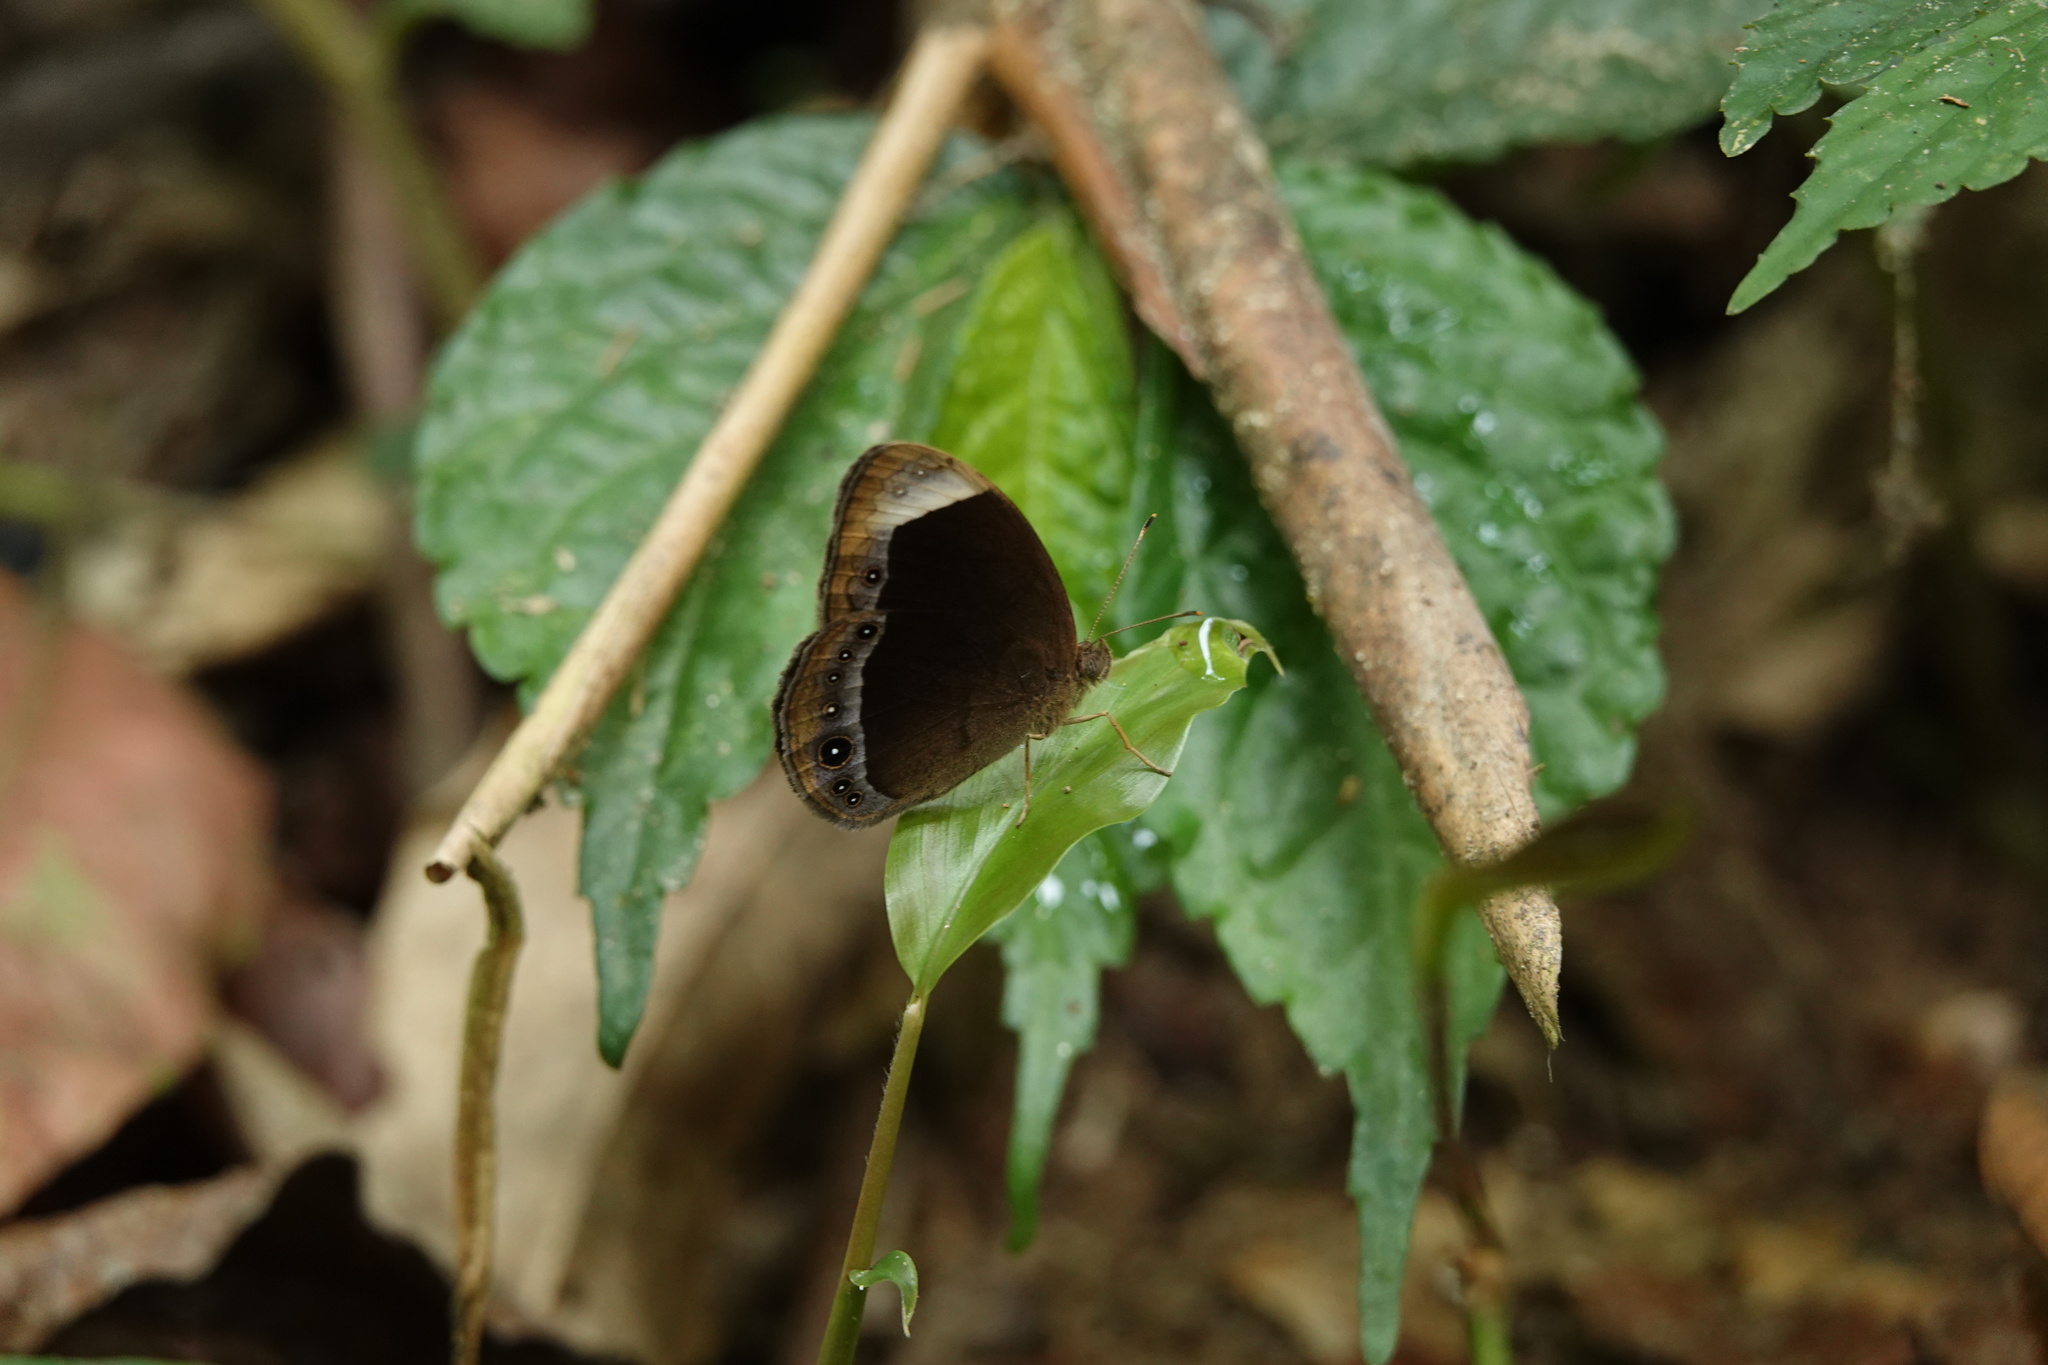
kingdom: Animalia
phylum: Arthropoda
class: Insecta
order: Lepidoptera
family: Nymphalidae
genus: Mycalesis
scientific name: Mycalesis anaxias
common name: White-bar bushbrown
